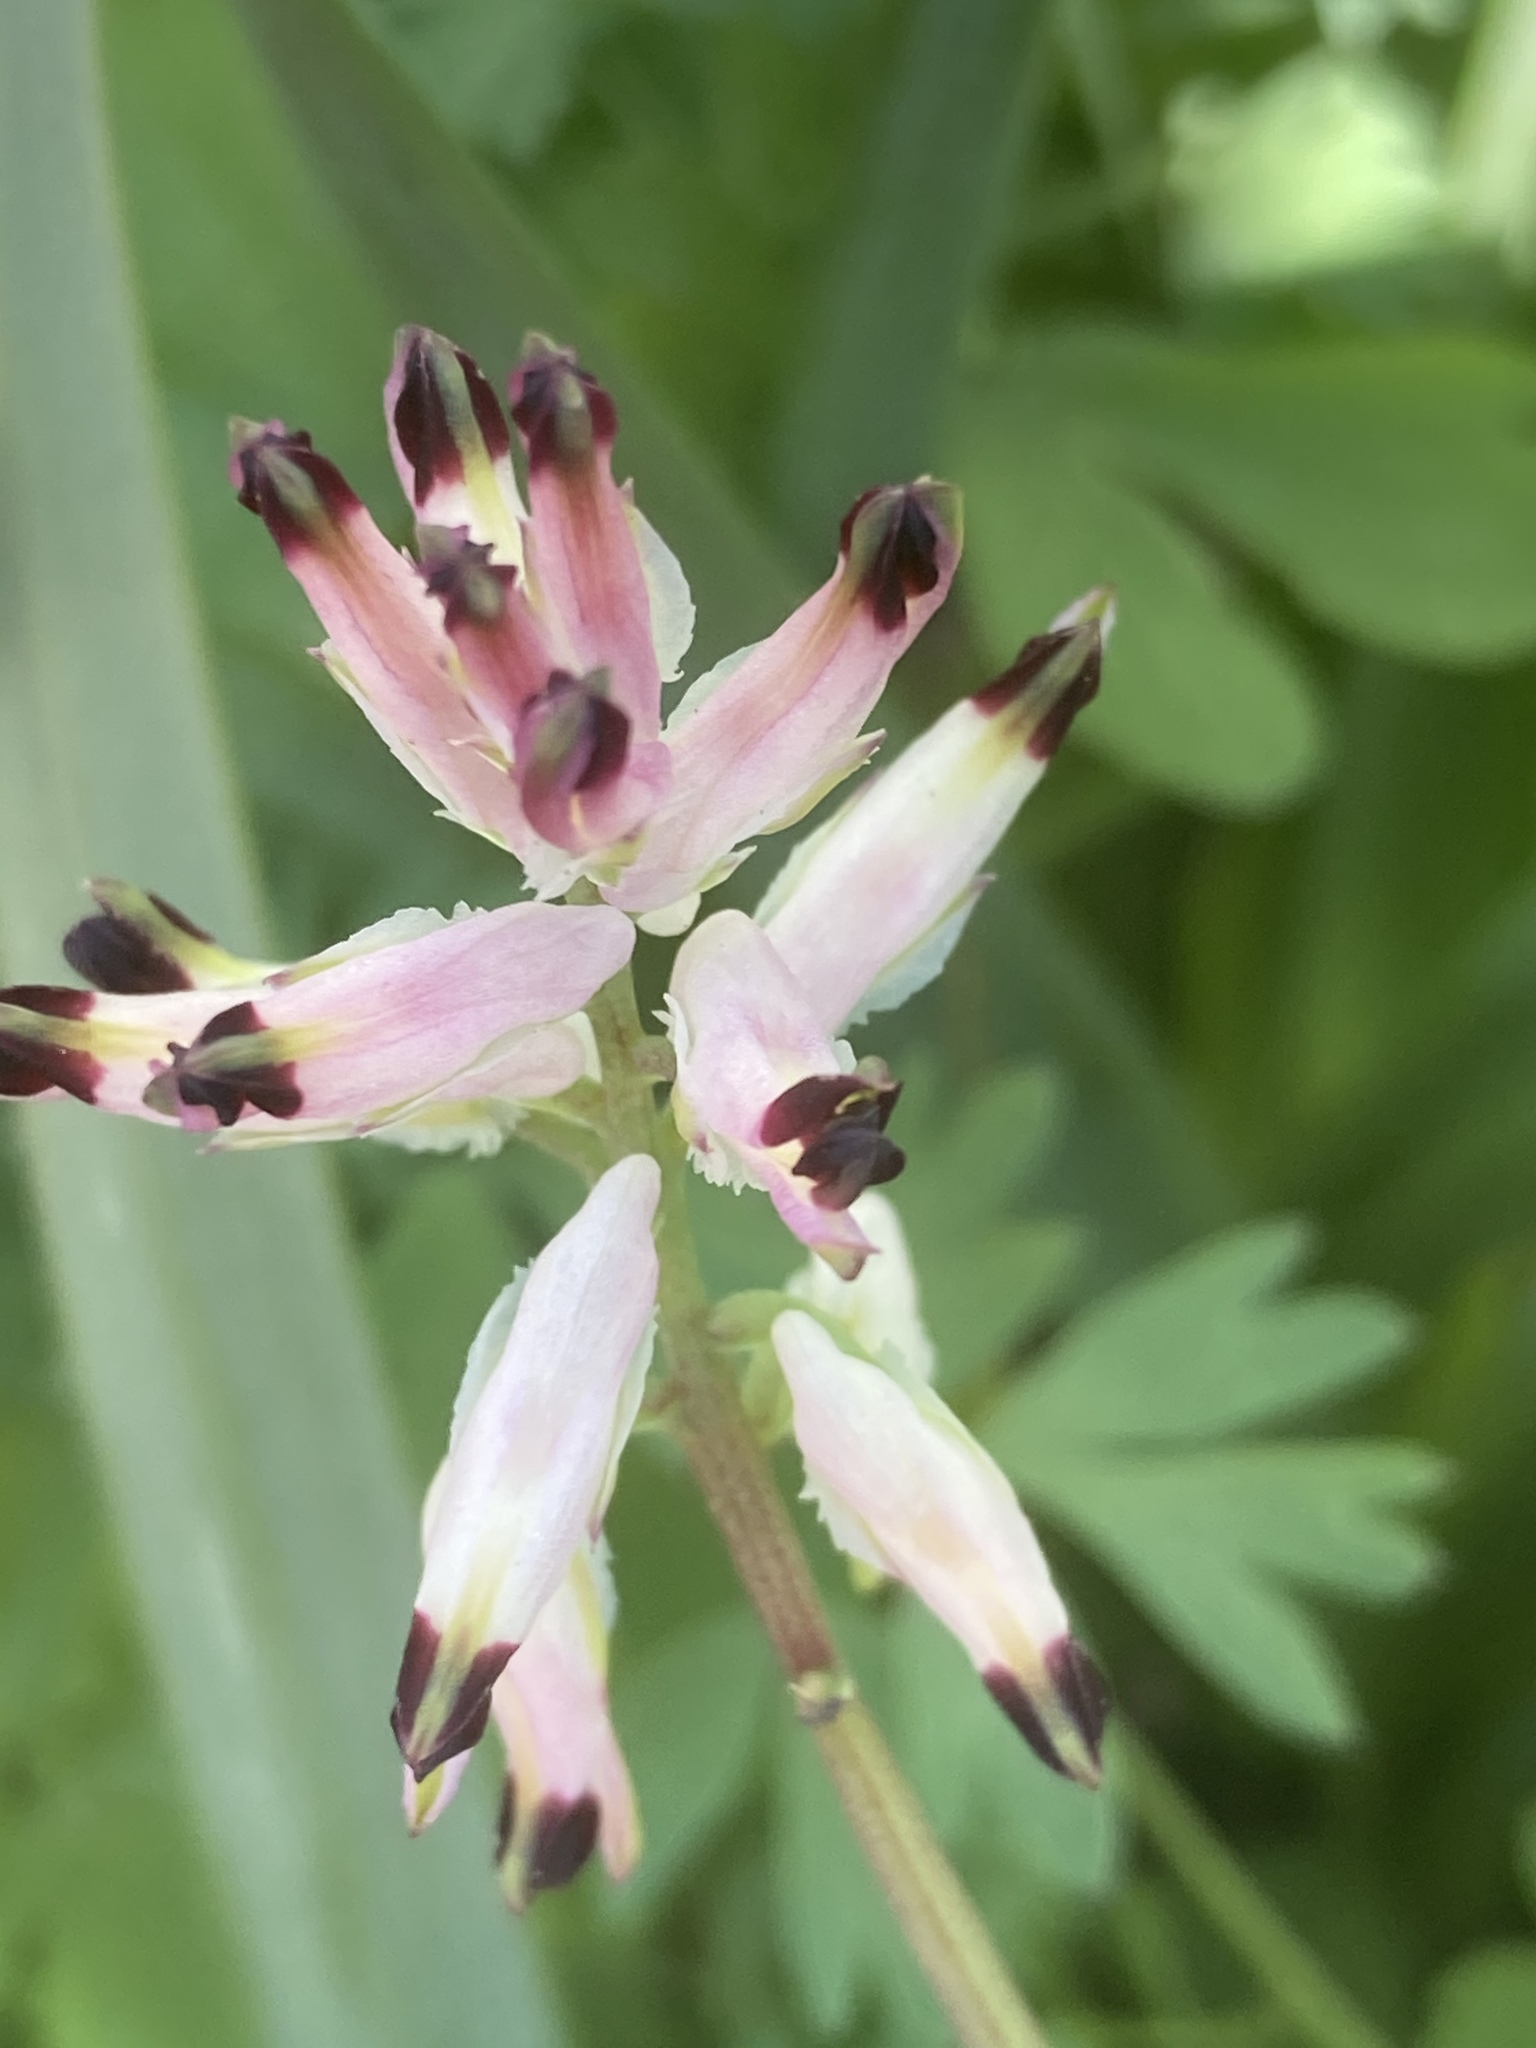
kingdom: Plantae
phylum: Tracheophyta
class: Magnoliopsida
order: Ranunculales
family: Papaveraceae
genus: Fumaria
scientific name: Fumaria capreolata
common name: White ramping-fumitory
